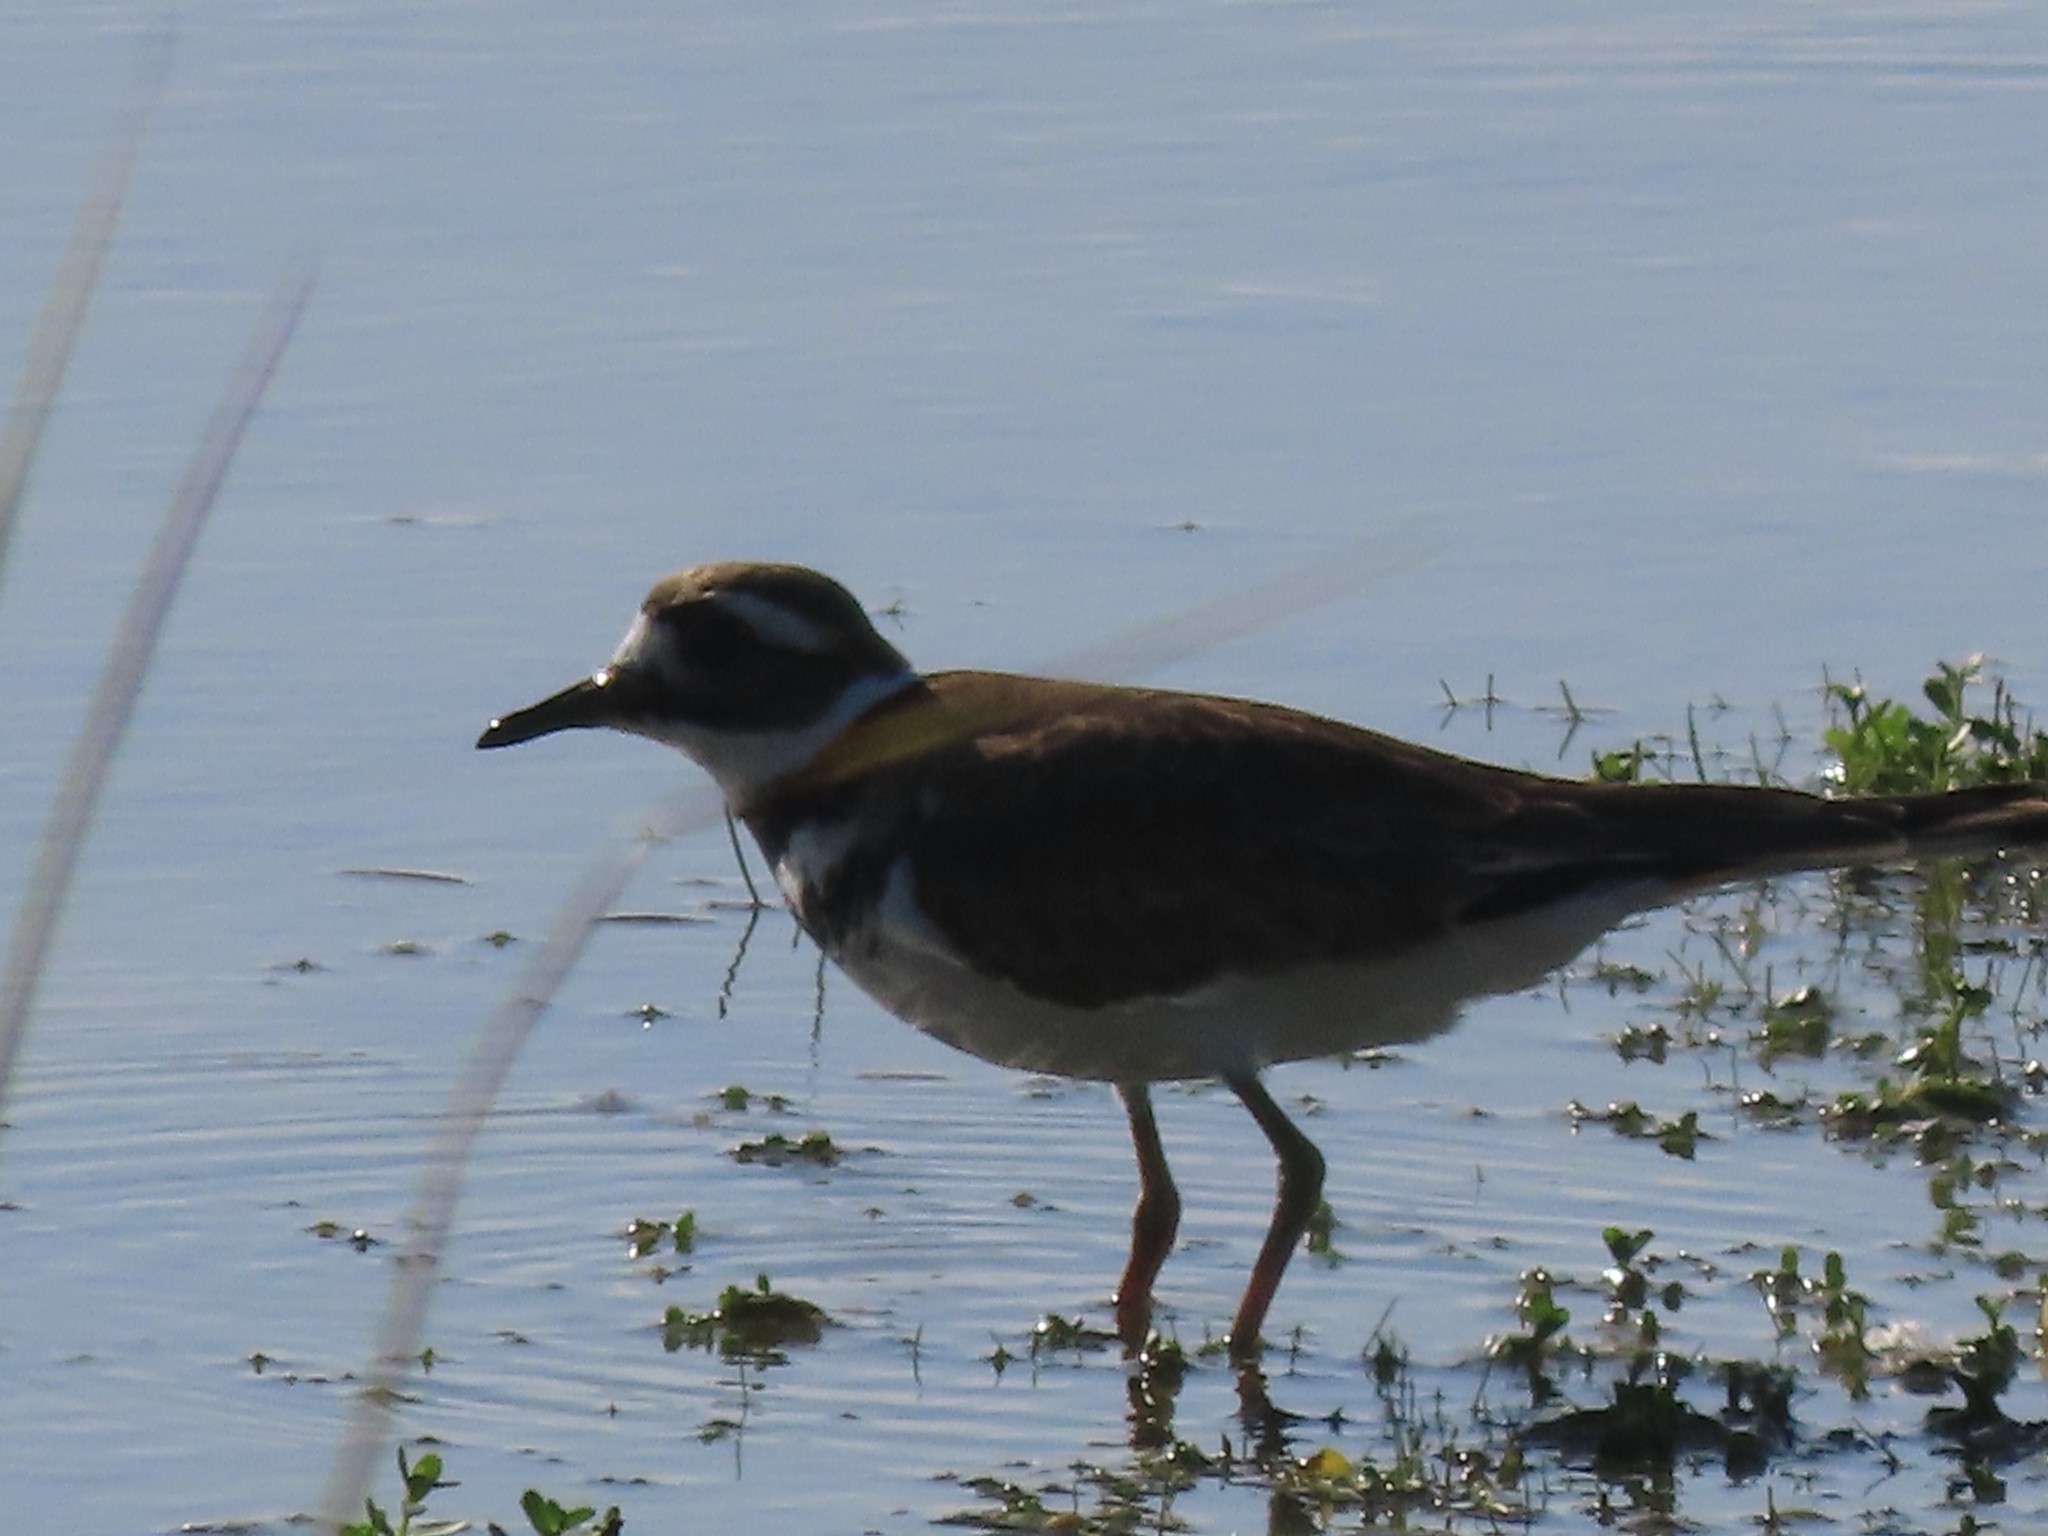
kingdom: Animalia
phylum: Chordata
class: Aves
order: Charadriiformes
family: Charadriidae
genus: Charadrius
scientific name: Charadrius vociferus
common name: Killdeer
